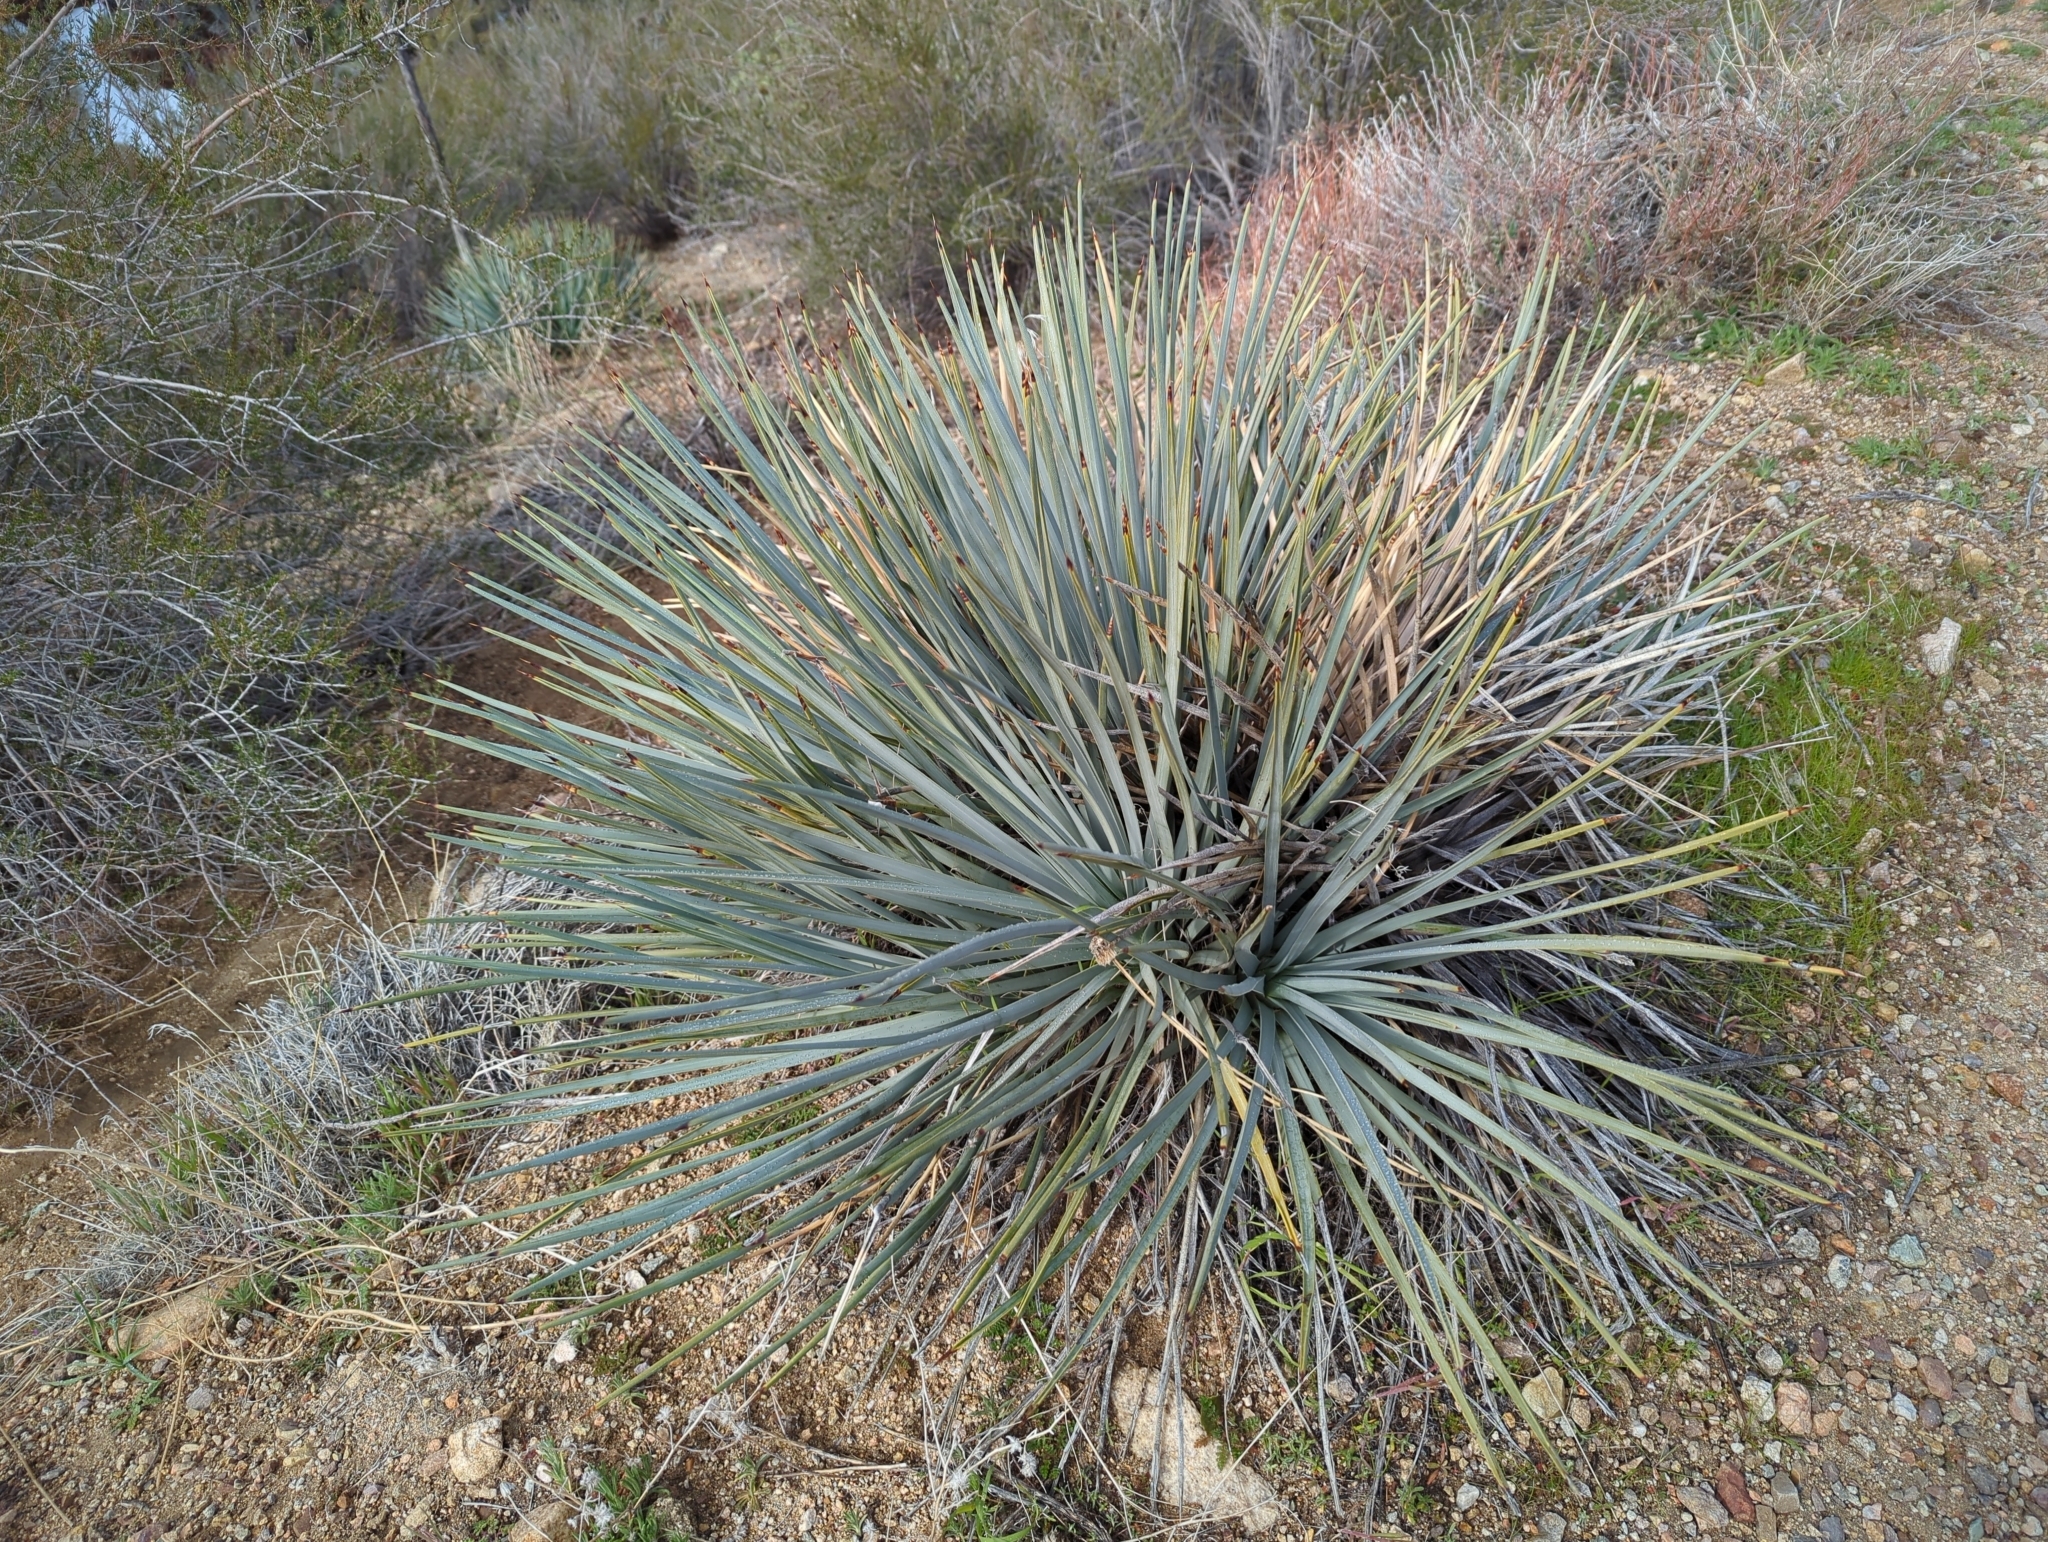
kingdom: Plantae
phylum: Tracheophyta
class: Liliopsida
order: Asparagales
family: Asparagaceae
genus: Hesperoyucca
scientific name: Hesperoyucca whipplei
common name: Our lord's-candle
